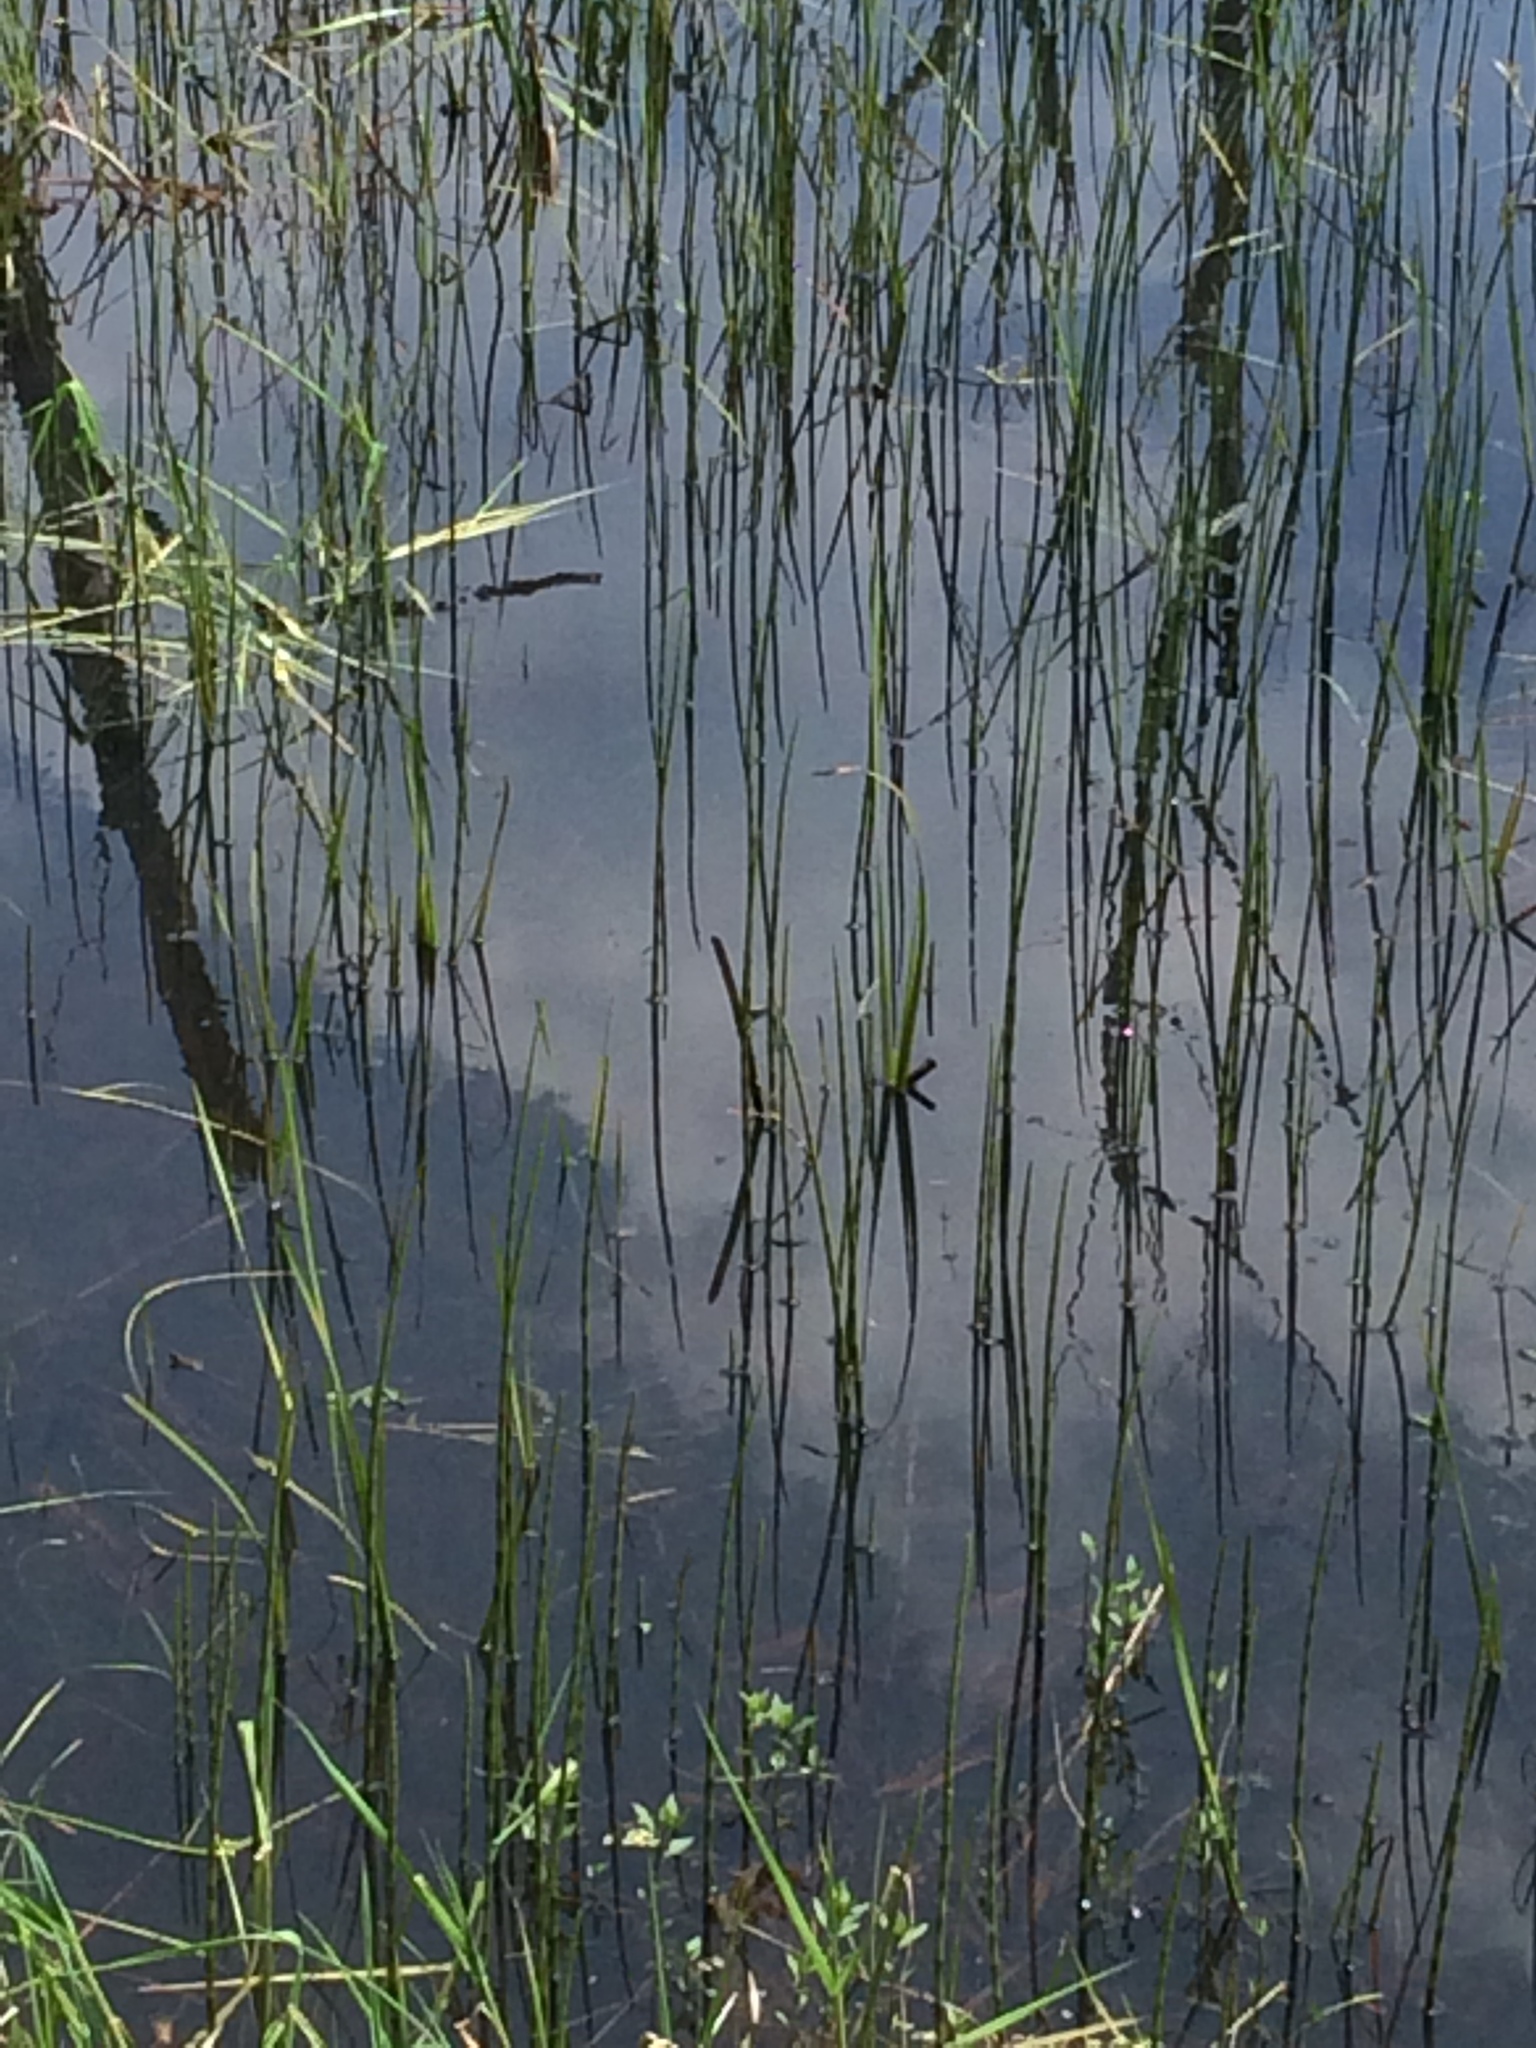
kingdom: Plantae
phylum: Tracheophyta
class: Polypodiopsida
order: Equisetales
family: Equisetaceae
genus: Equisetum
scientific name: Equisetum fluviatile
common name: Water horsetail
